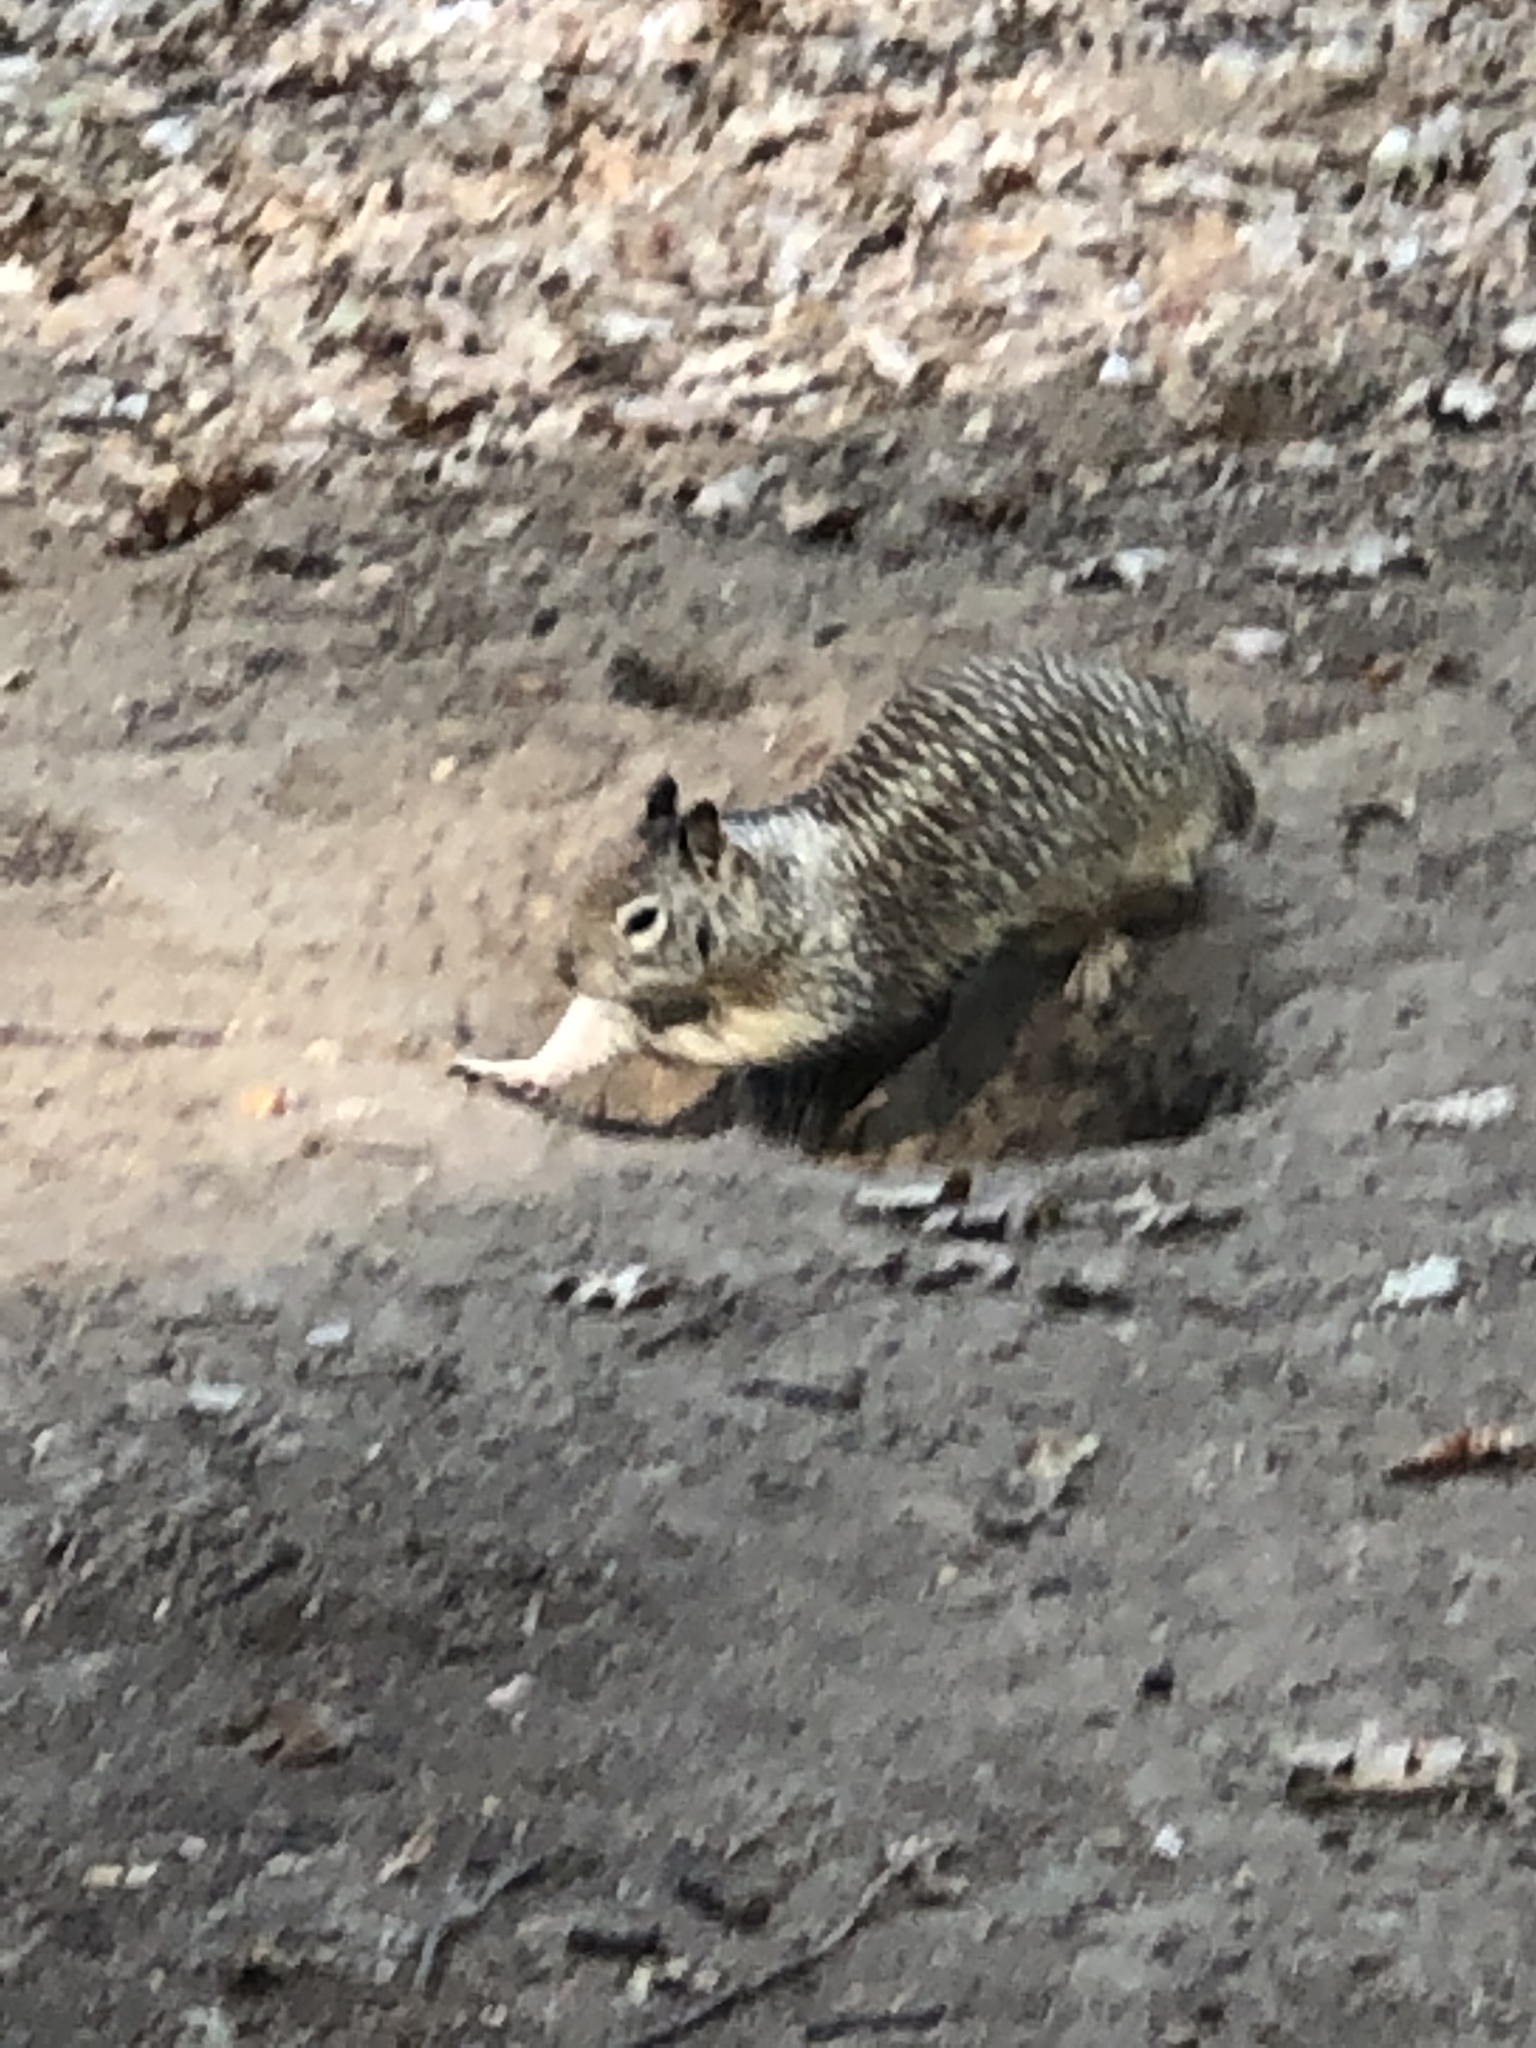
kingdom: Animalia
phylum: Chordata
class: Mammalia
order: Rodentia
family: Sciuridae
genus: Otospermophilus
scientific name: Otospermophilus beecheyi
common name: California ground squirrel
